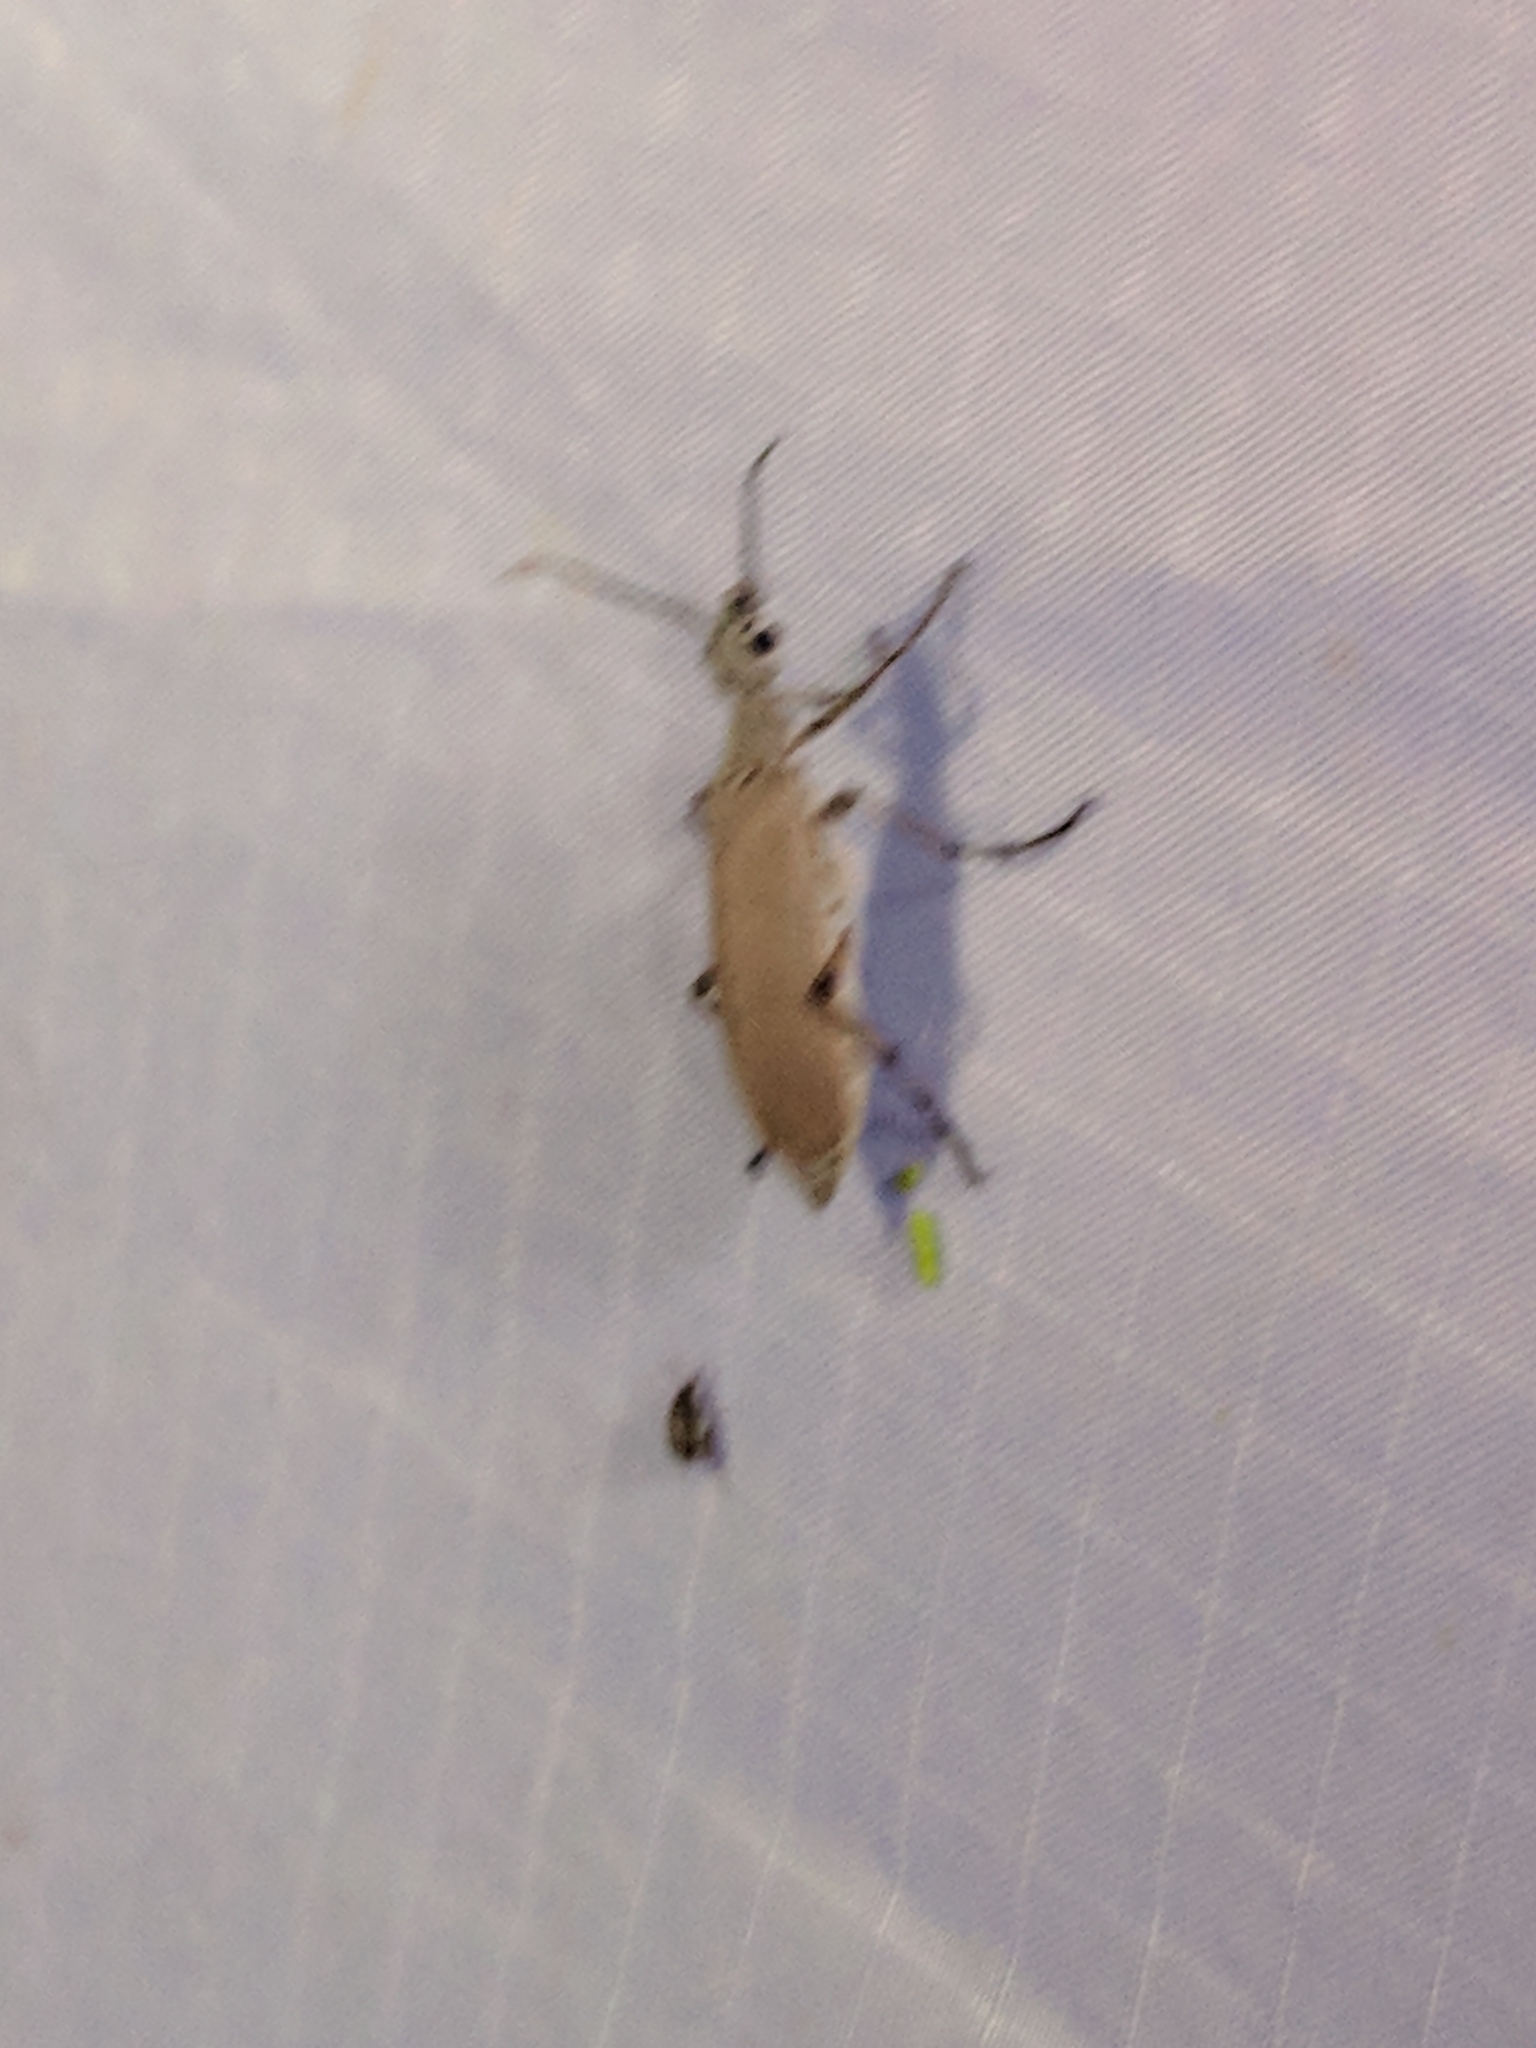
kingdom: Animalia
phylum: Arthropoda
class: Insecta
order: Coleoptera
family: Meloidae
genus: Epicauta
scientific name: Epicauta polingi
